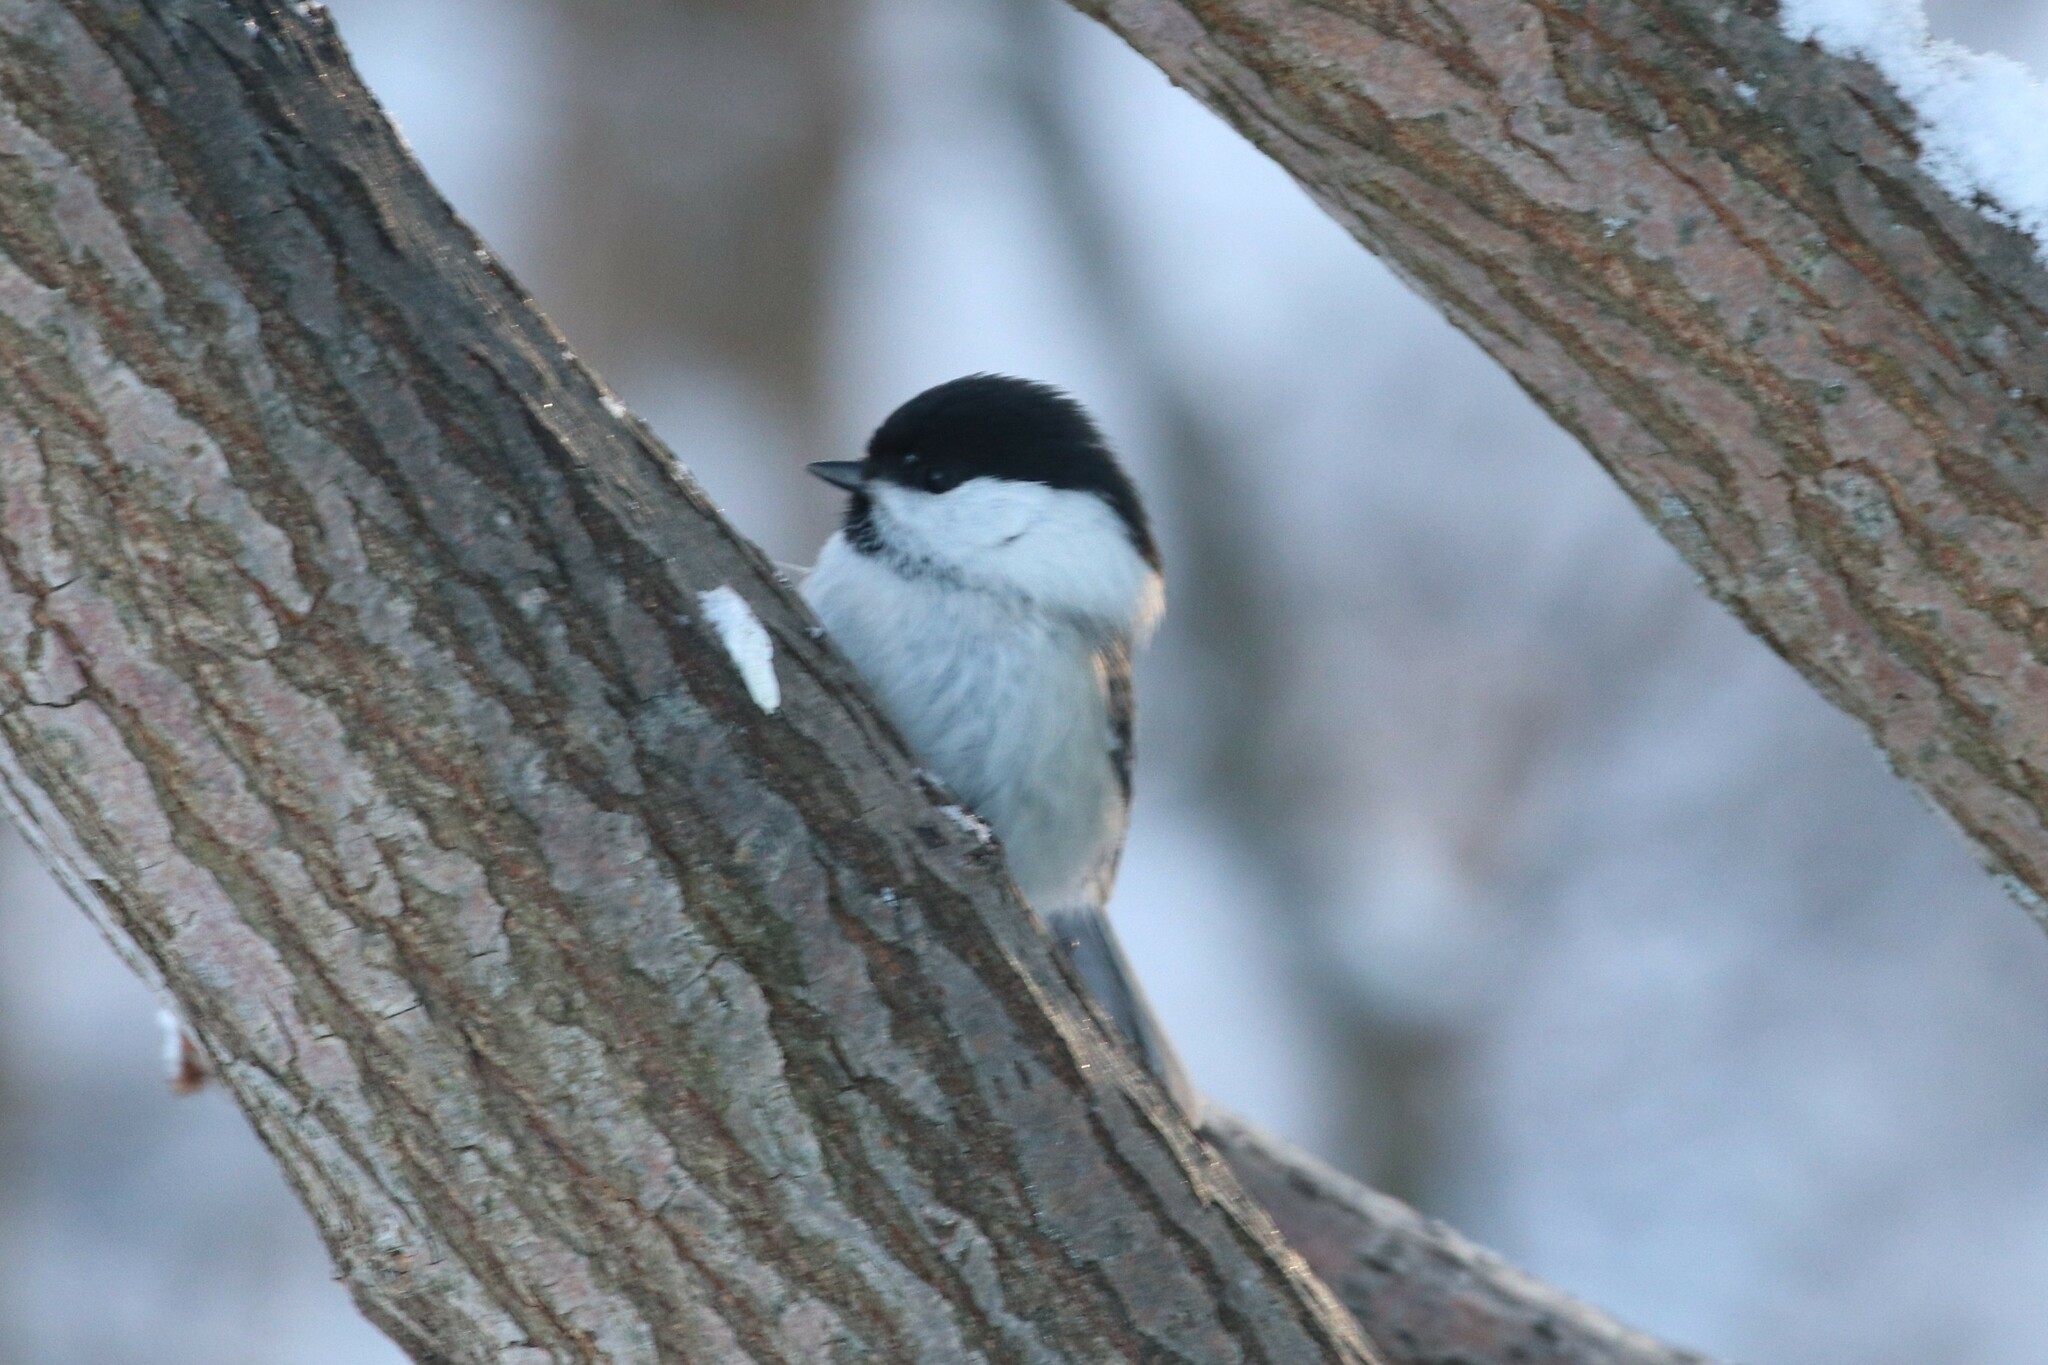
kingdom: Animalia
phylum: Chordata
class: Aves
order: Passeriformes
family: Paridae
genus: Poecile
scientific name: Poecile montanus
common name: Willow tit
